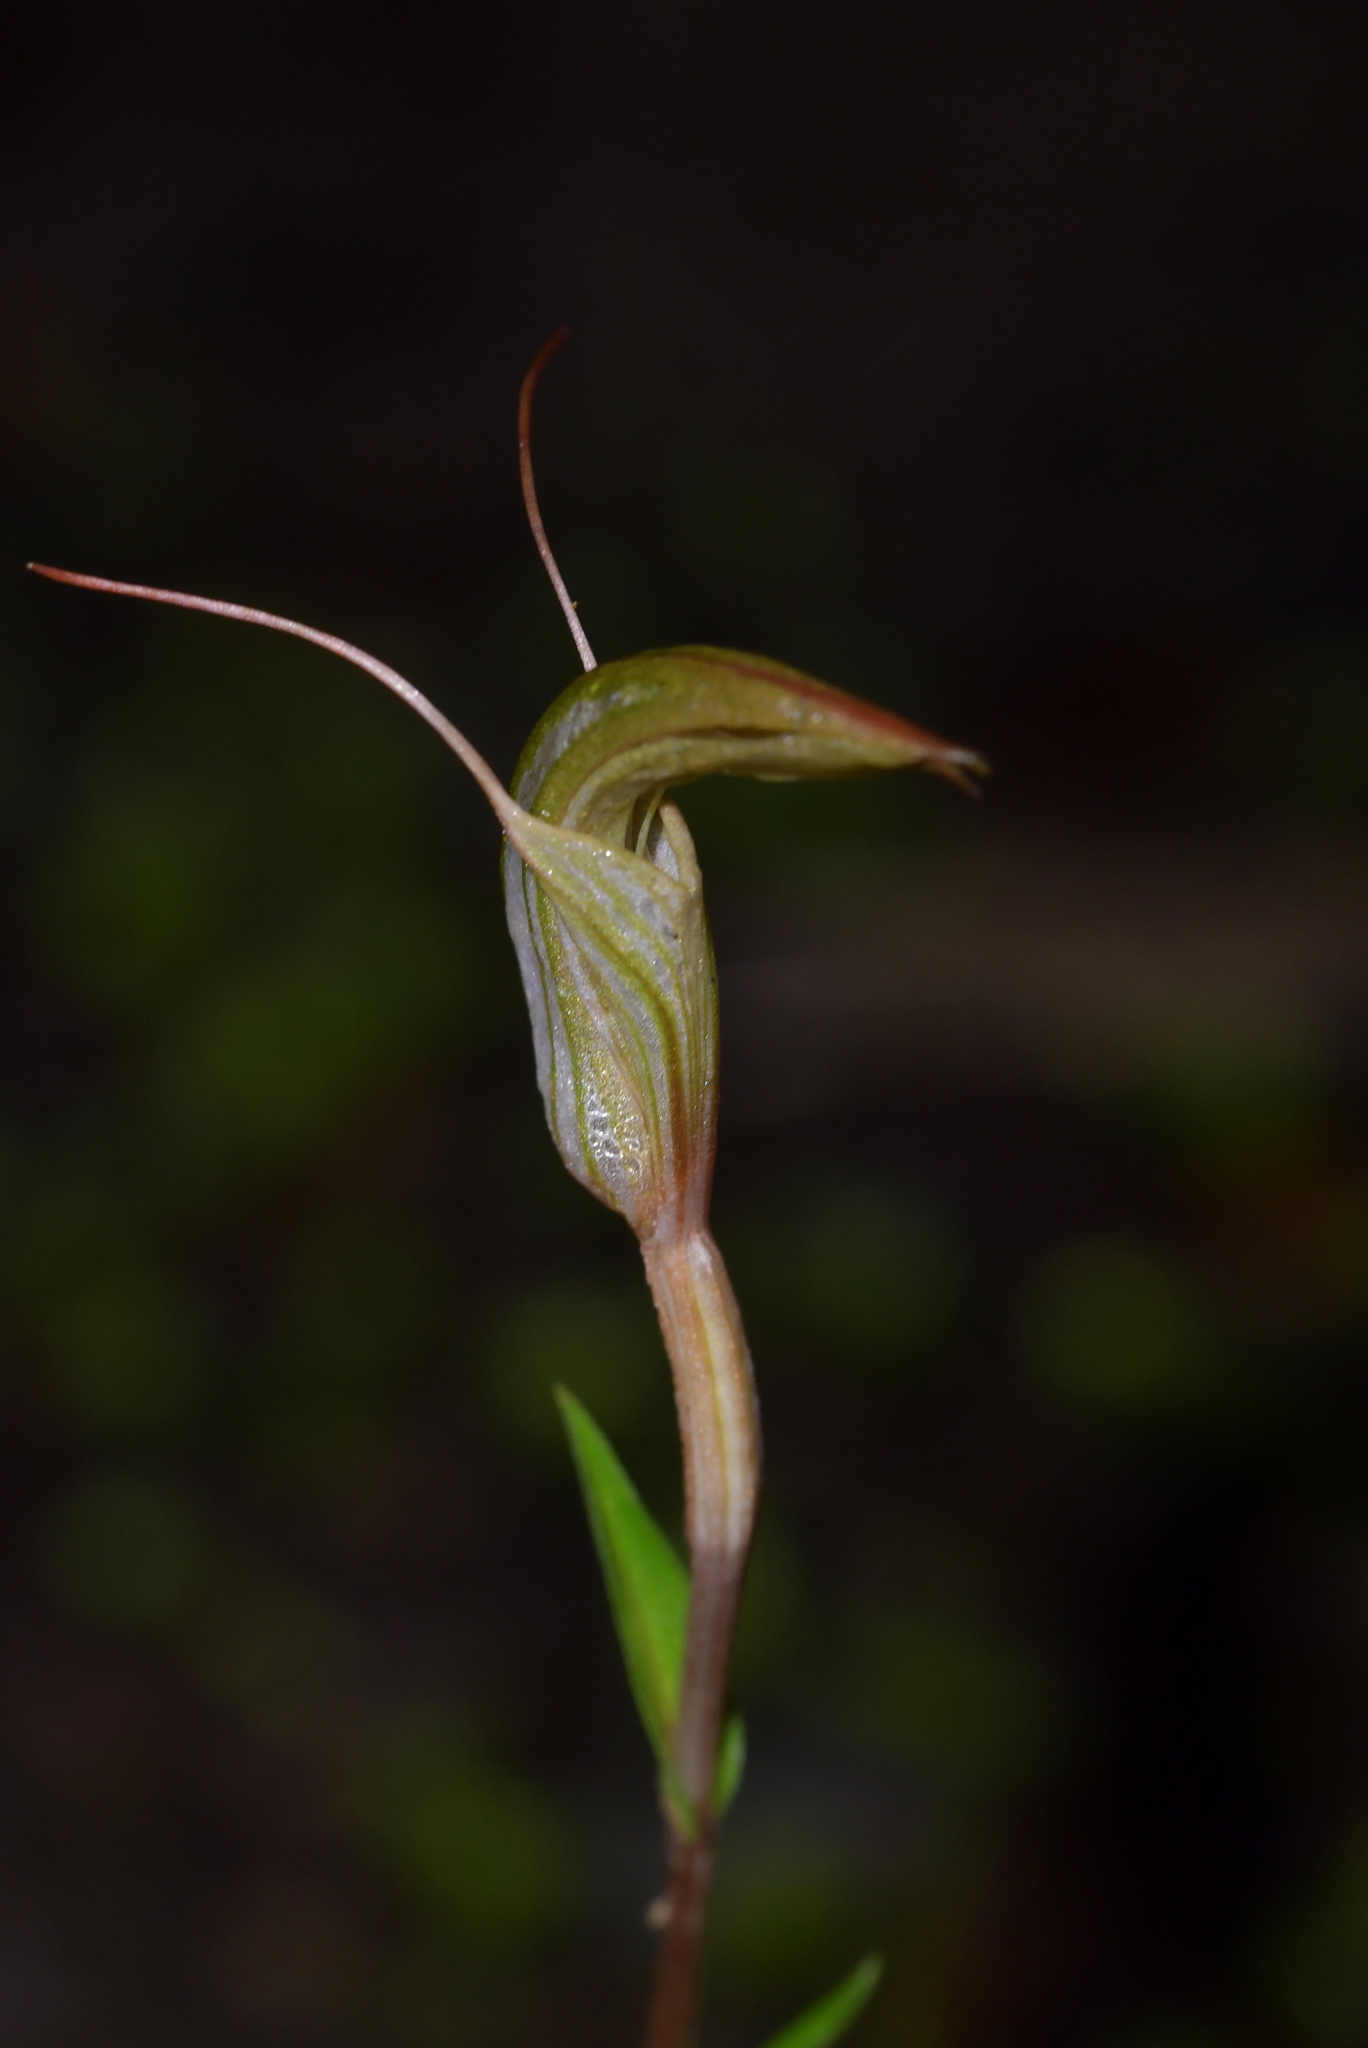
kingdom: Plantae
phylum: Tracheophyta
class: Liliopsida
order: Asparagales
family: Orchidaceae
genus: Pterostylis
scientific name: Pterostylis alobula
